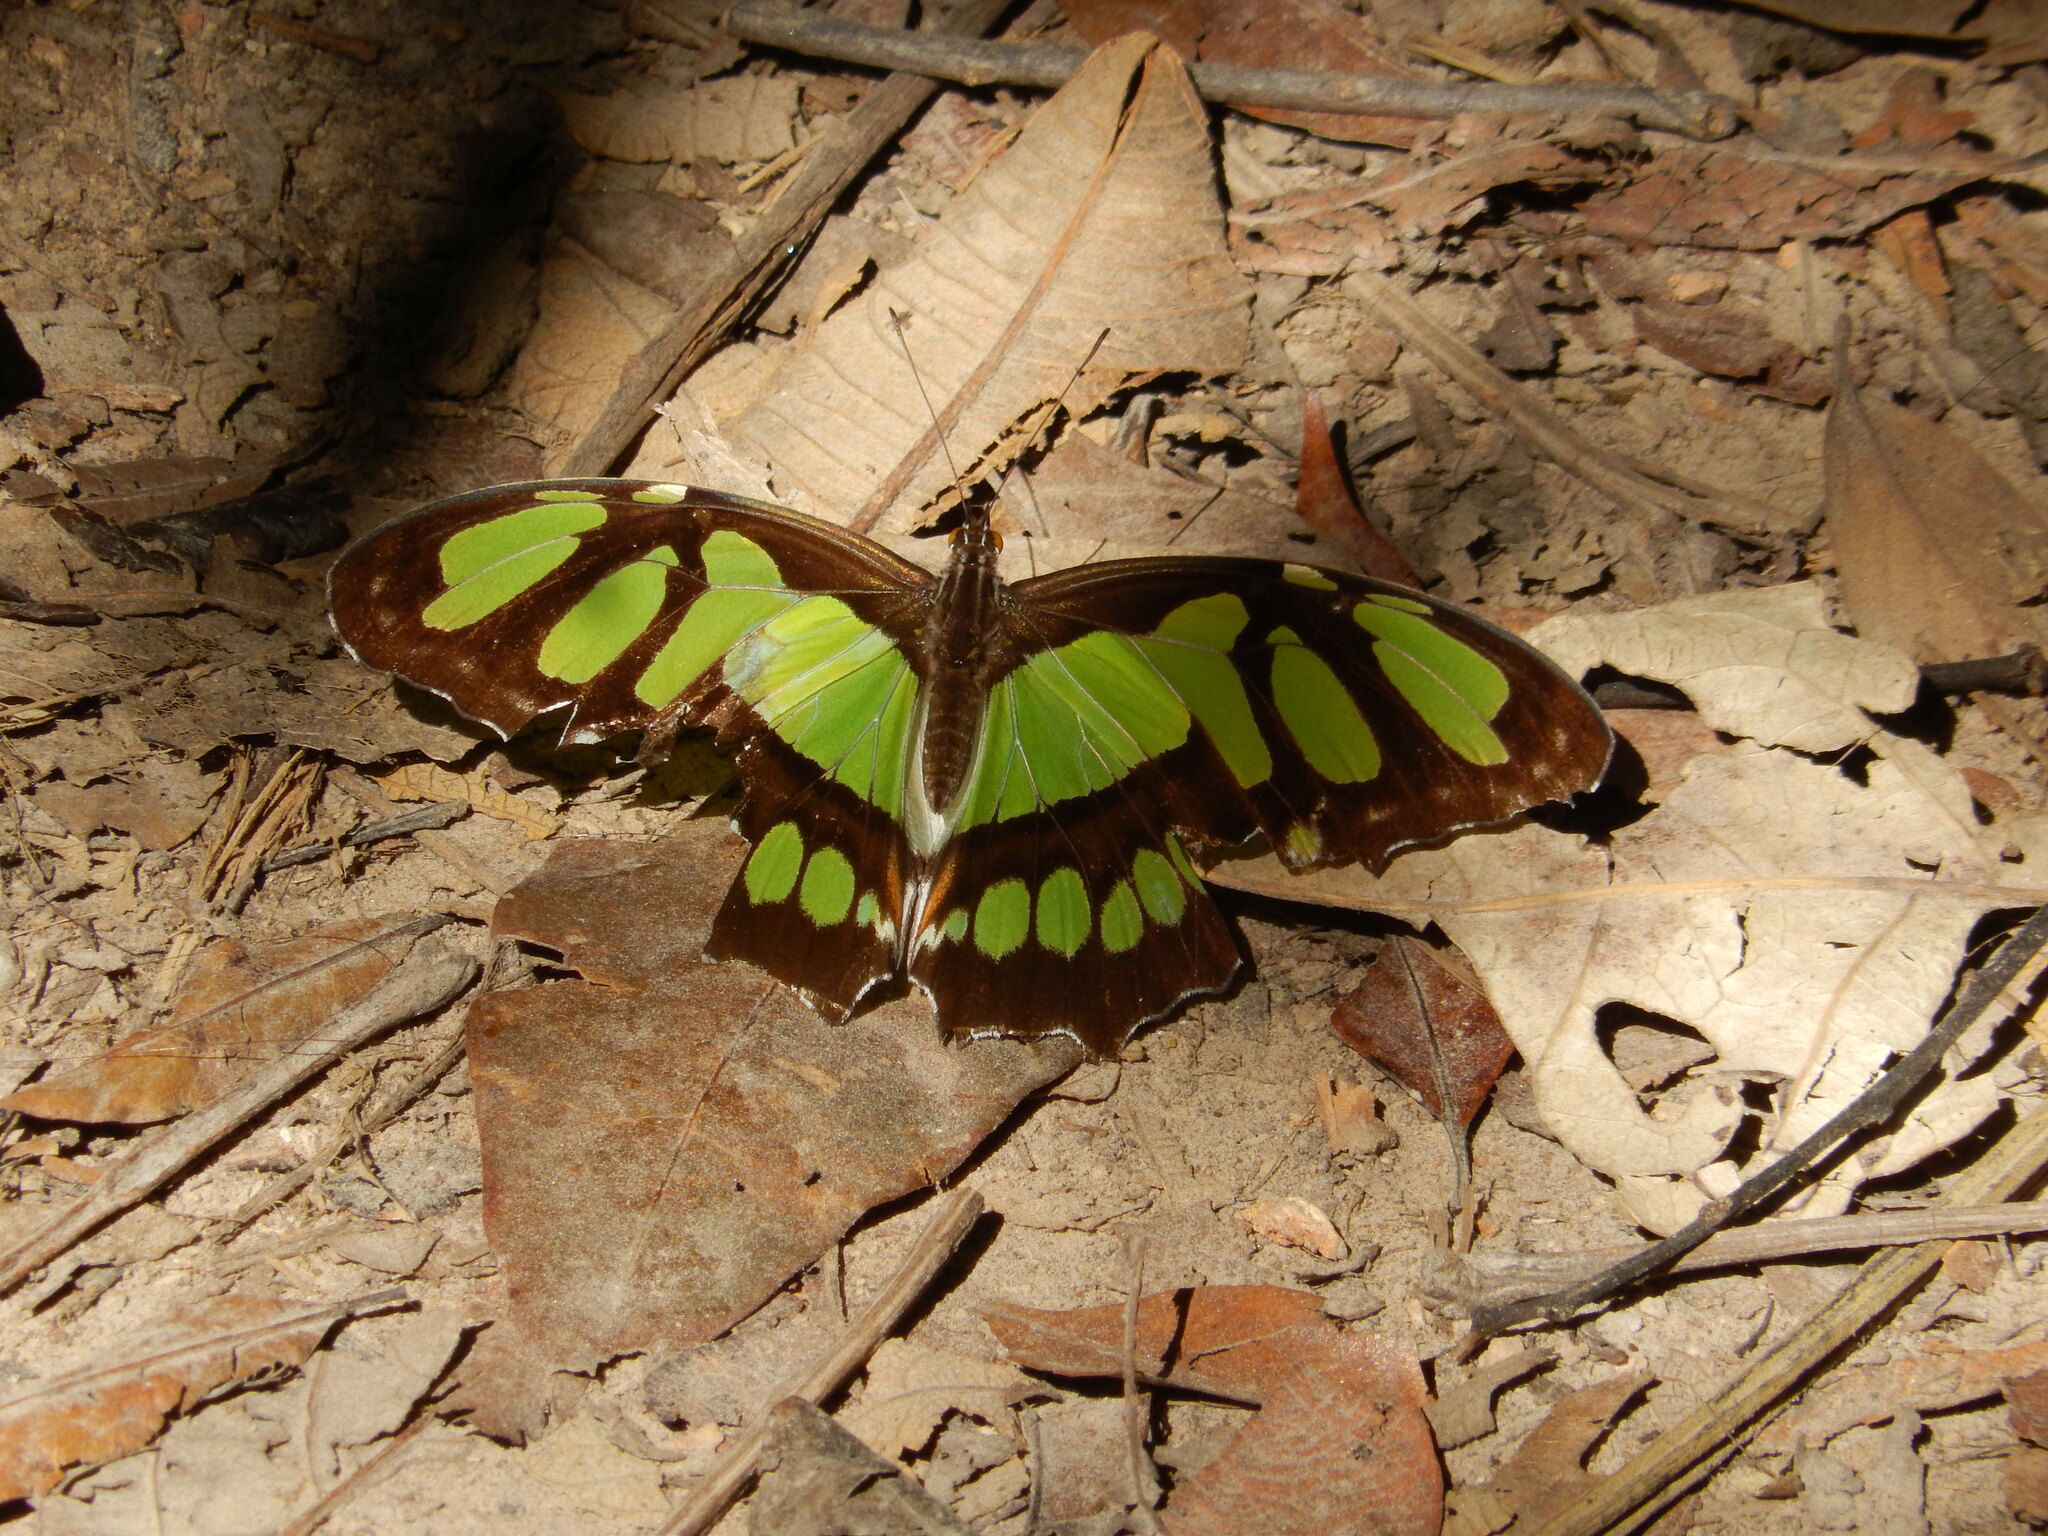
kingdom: Animalia
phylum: Arthropoda
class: Insecta
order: Lepidoptera
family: Nymphalidae
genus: Siproeta
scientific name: Siproeta stelenes
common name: Malachite
